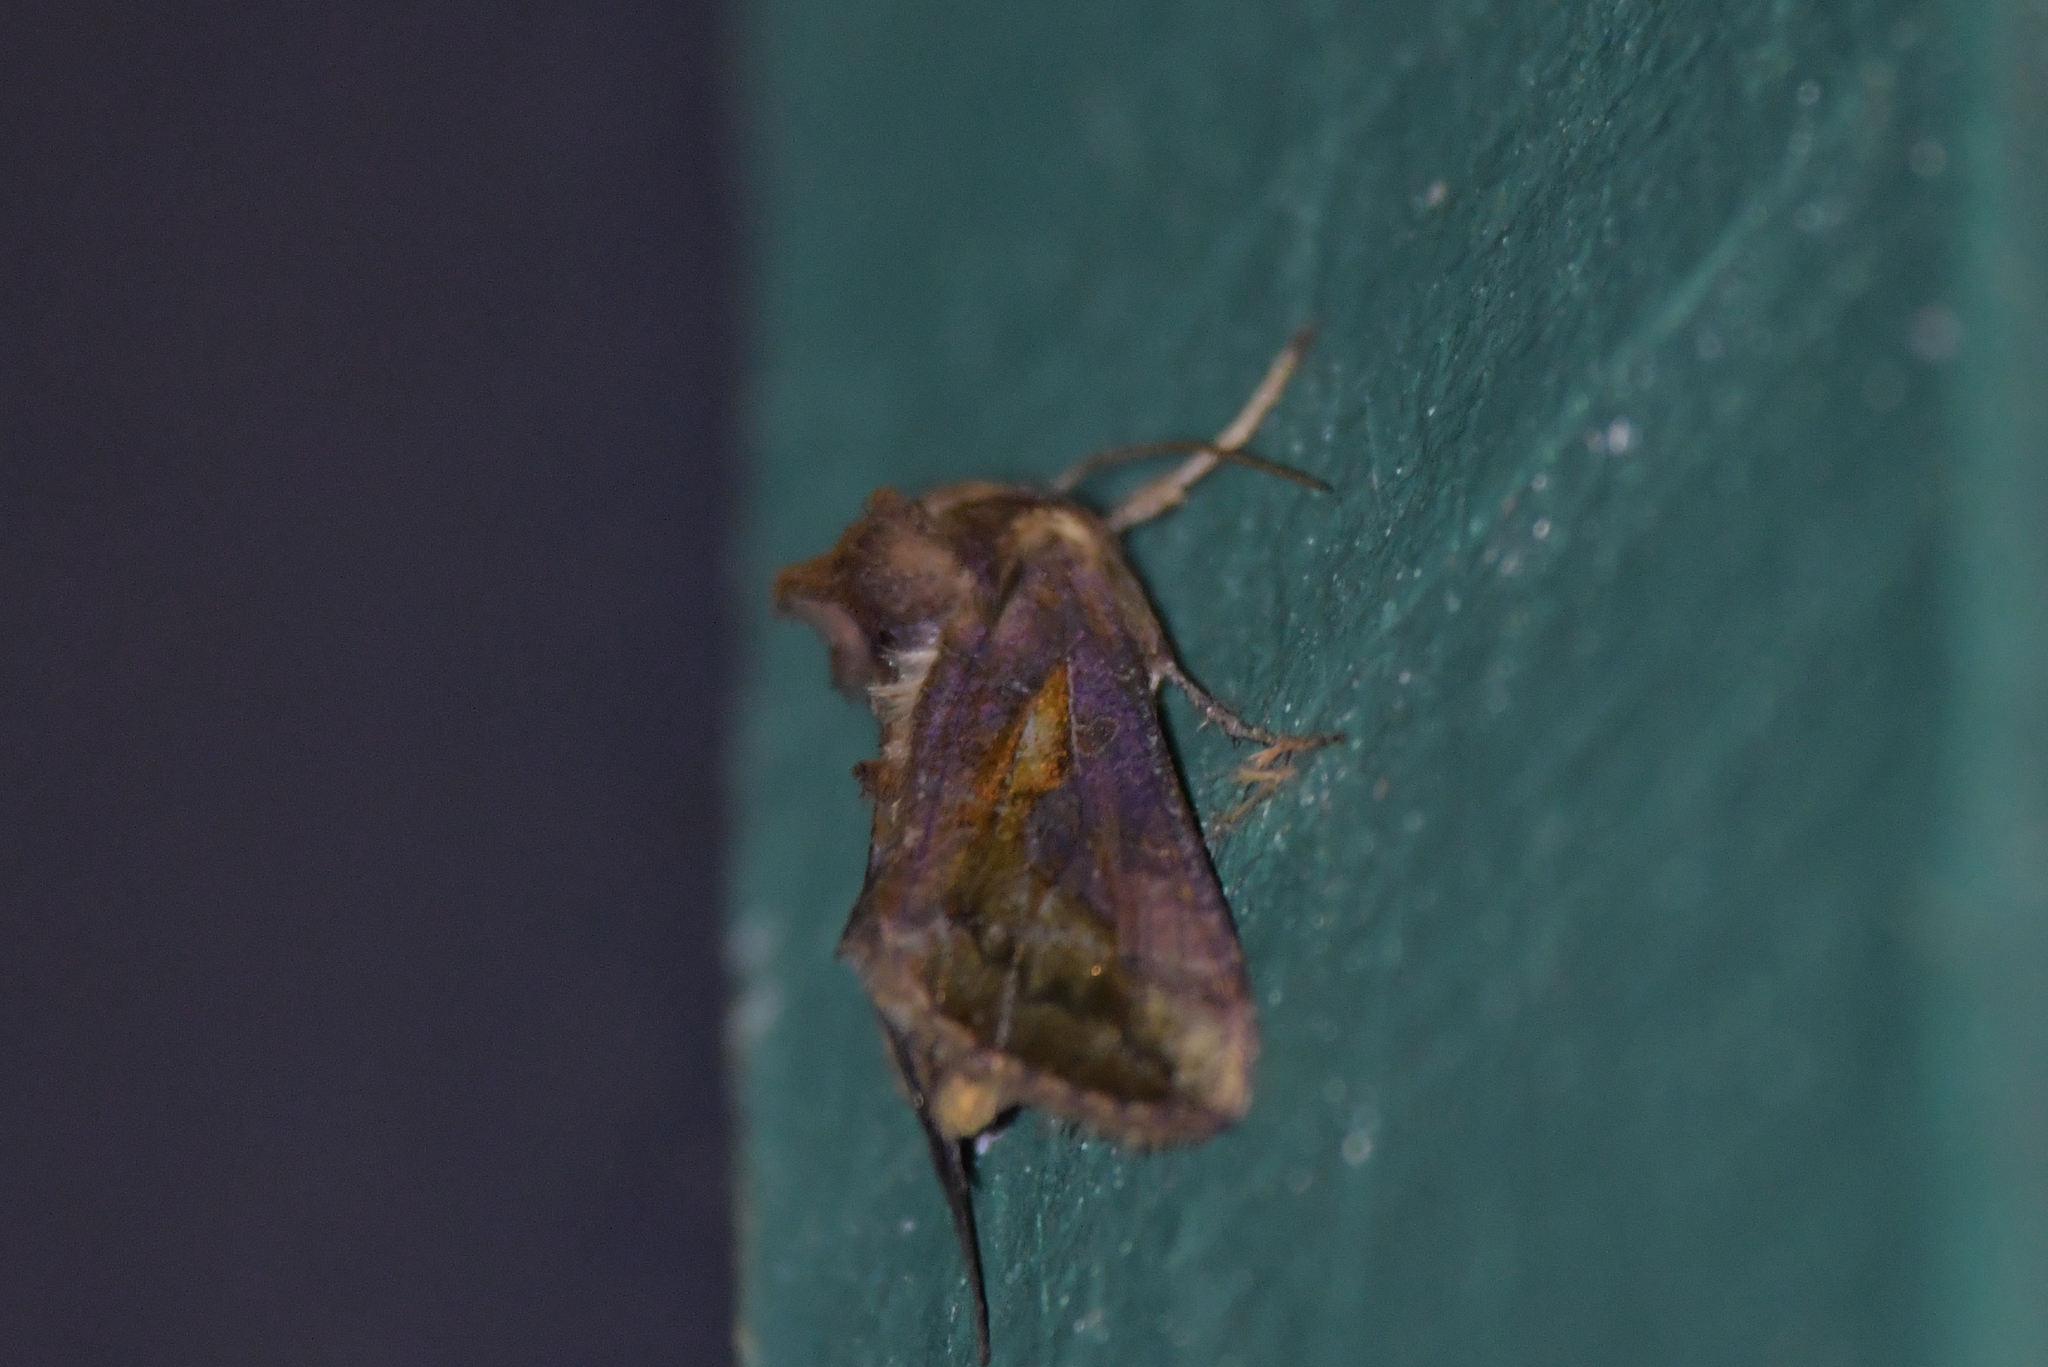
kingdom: Animalia
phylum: Arthropoda
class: Insecta
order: Lepidoptera
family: Noctuidae
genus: Thysanoplusia
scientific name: Thysanoplusia orichalcea
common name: Slender burnished brass, golden plusia
